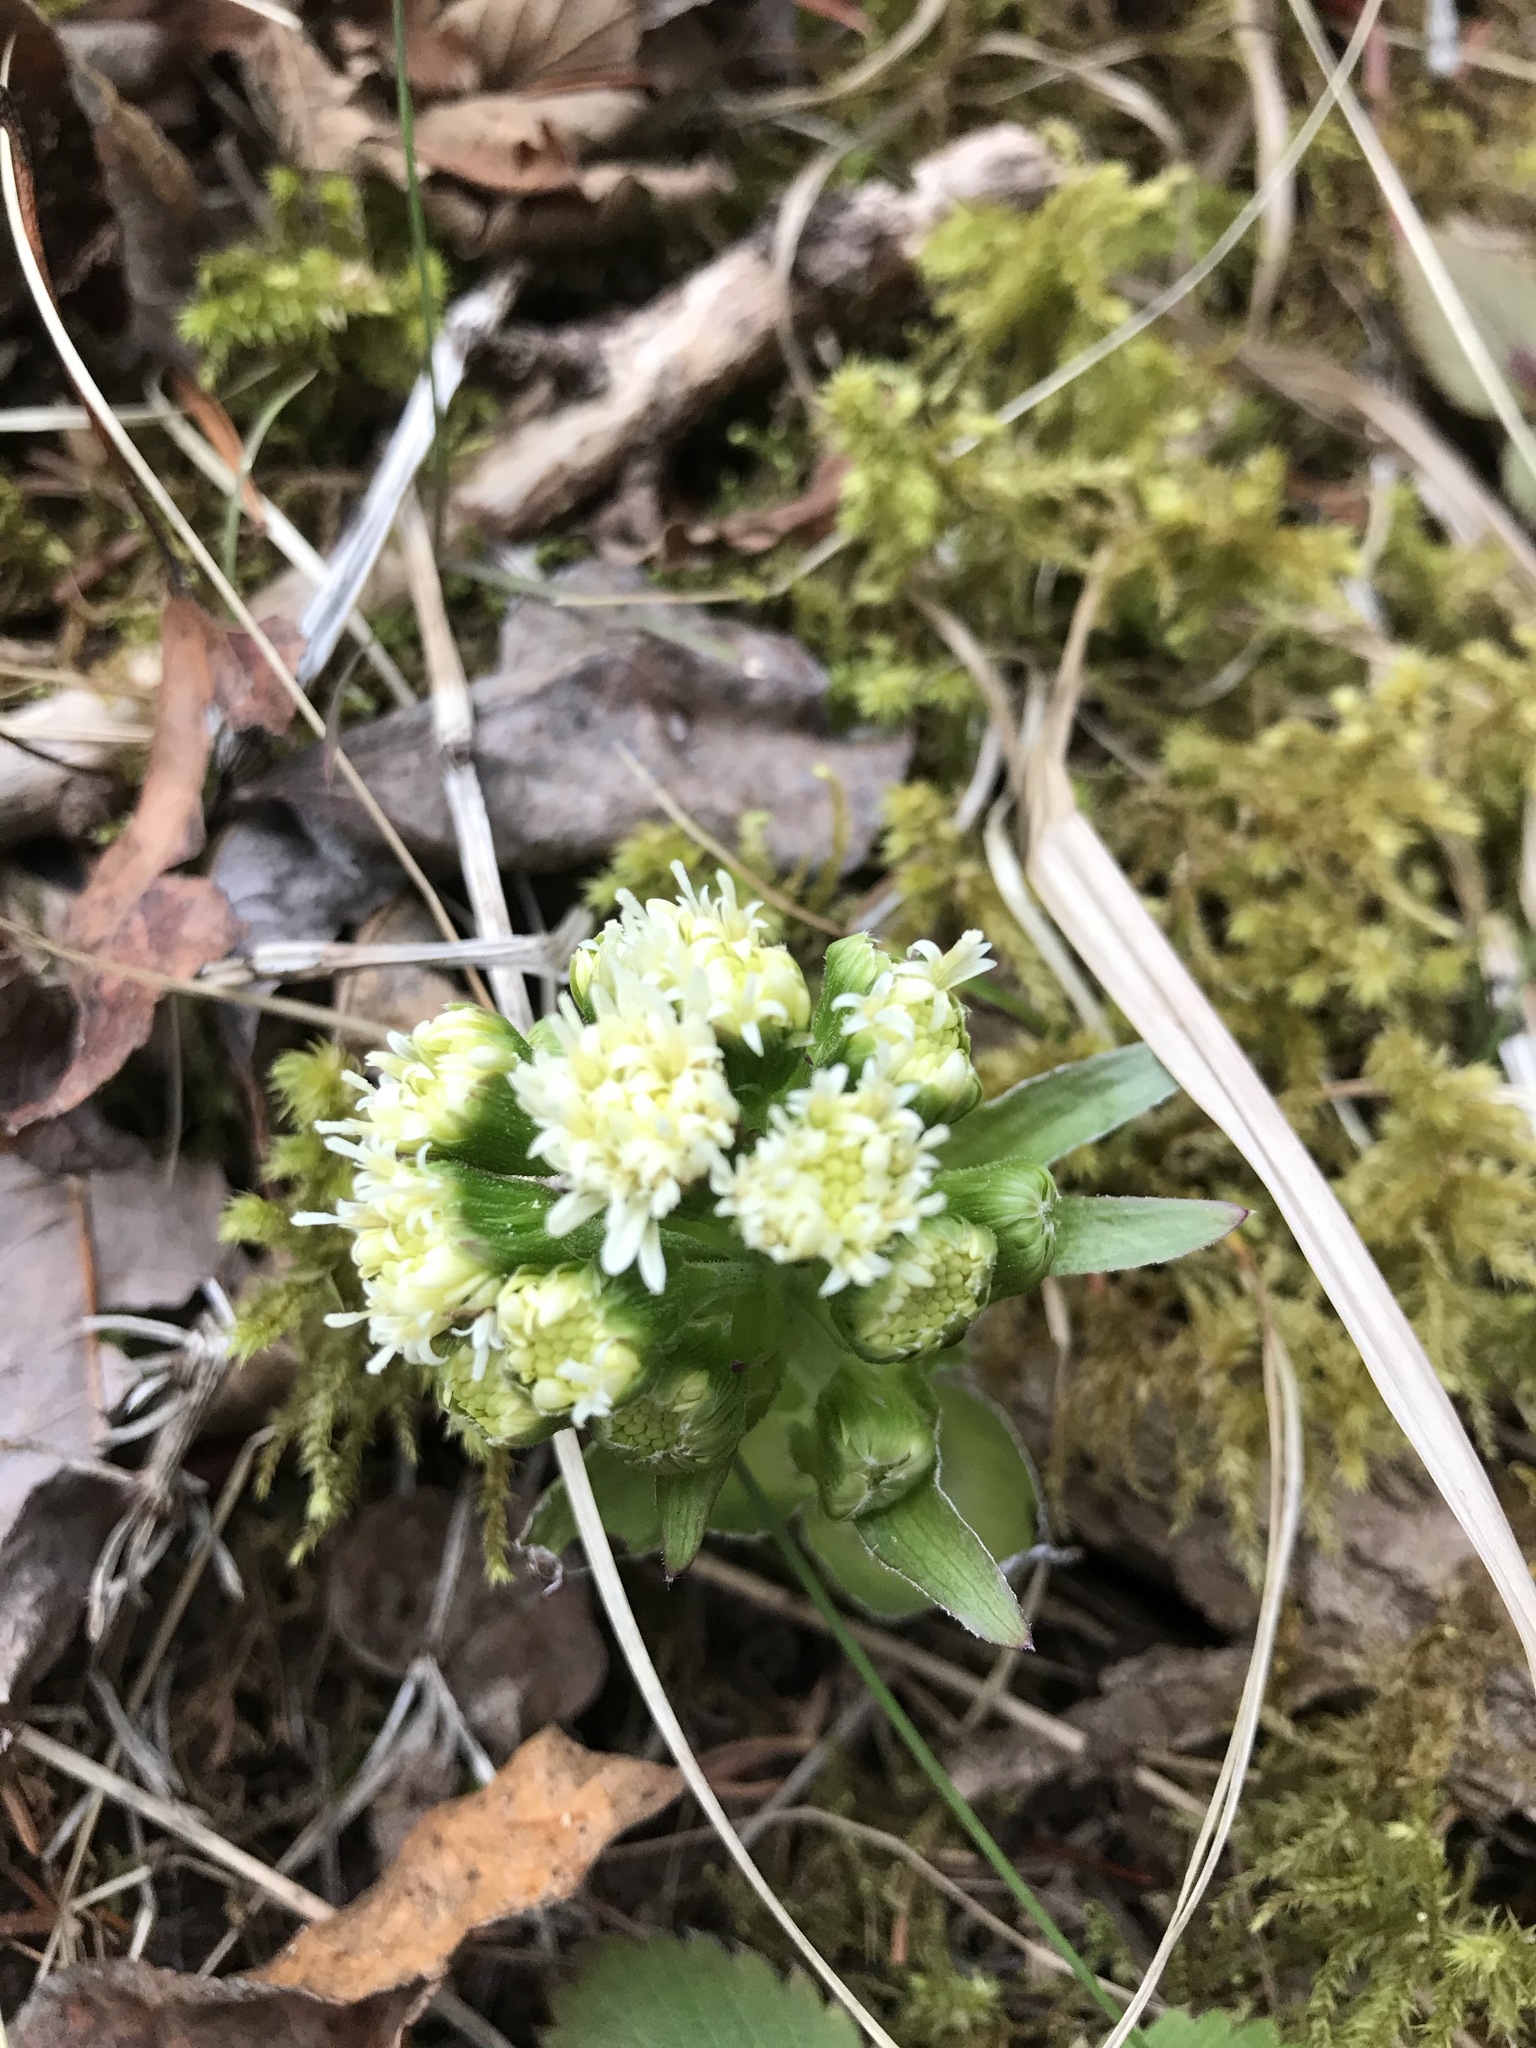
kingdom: Plantae
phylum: Tracheophyta
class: Magnoliopsida
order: Asterales
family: Asteraceae
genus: Petasites
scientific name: Petasites frigidus
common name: Arctic butterbur
